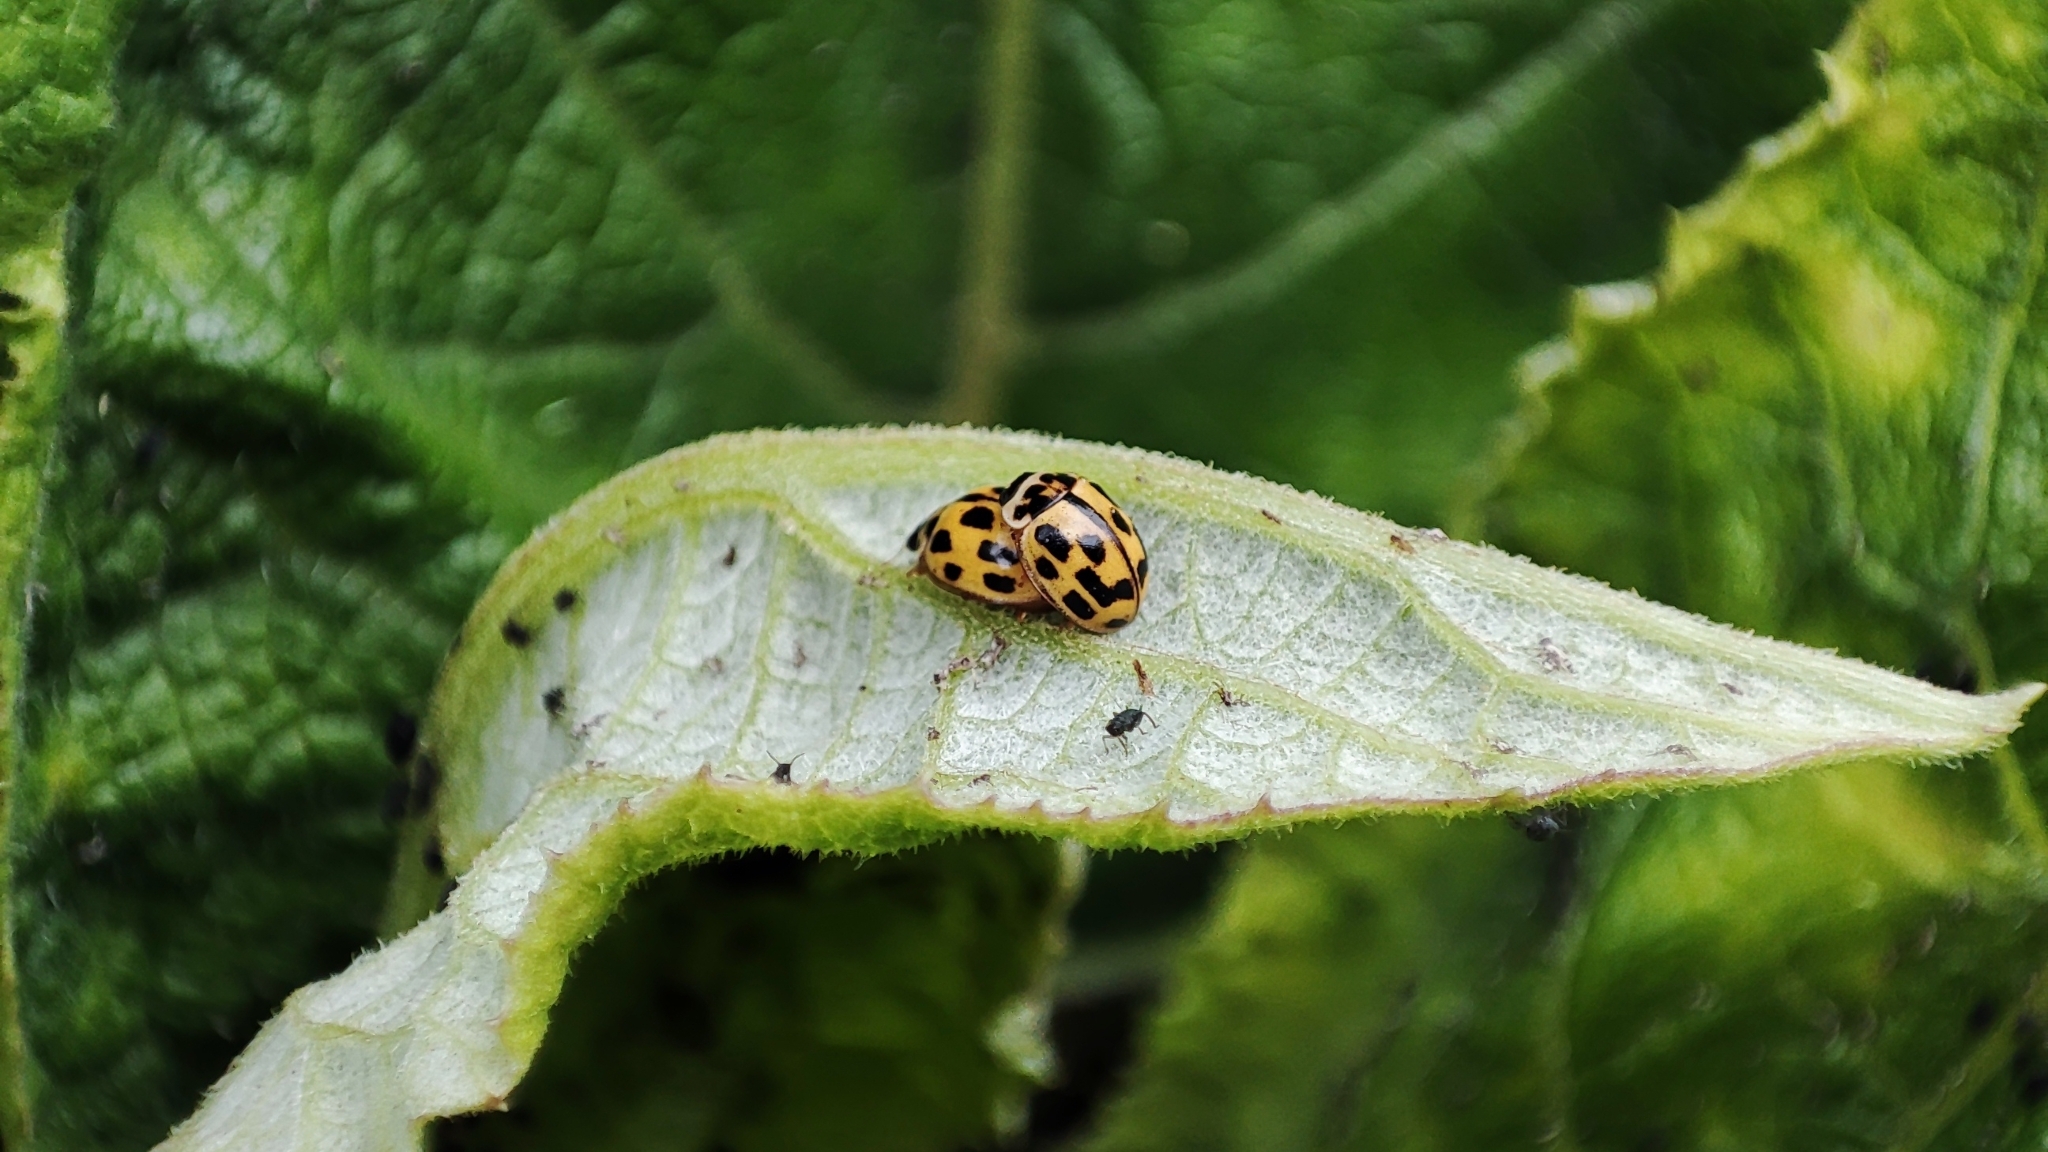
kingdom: Animalia
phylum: Arthropoda
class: Insecta
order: Coleoptera
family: Coccinellidae
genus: Propylaea
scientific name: Propylaea quatuordecimpunctata
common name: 14-spotted ladybird beetle
